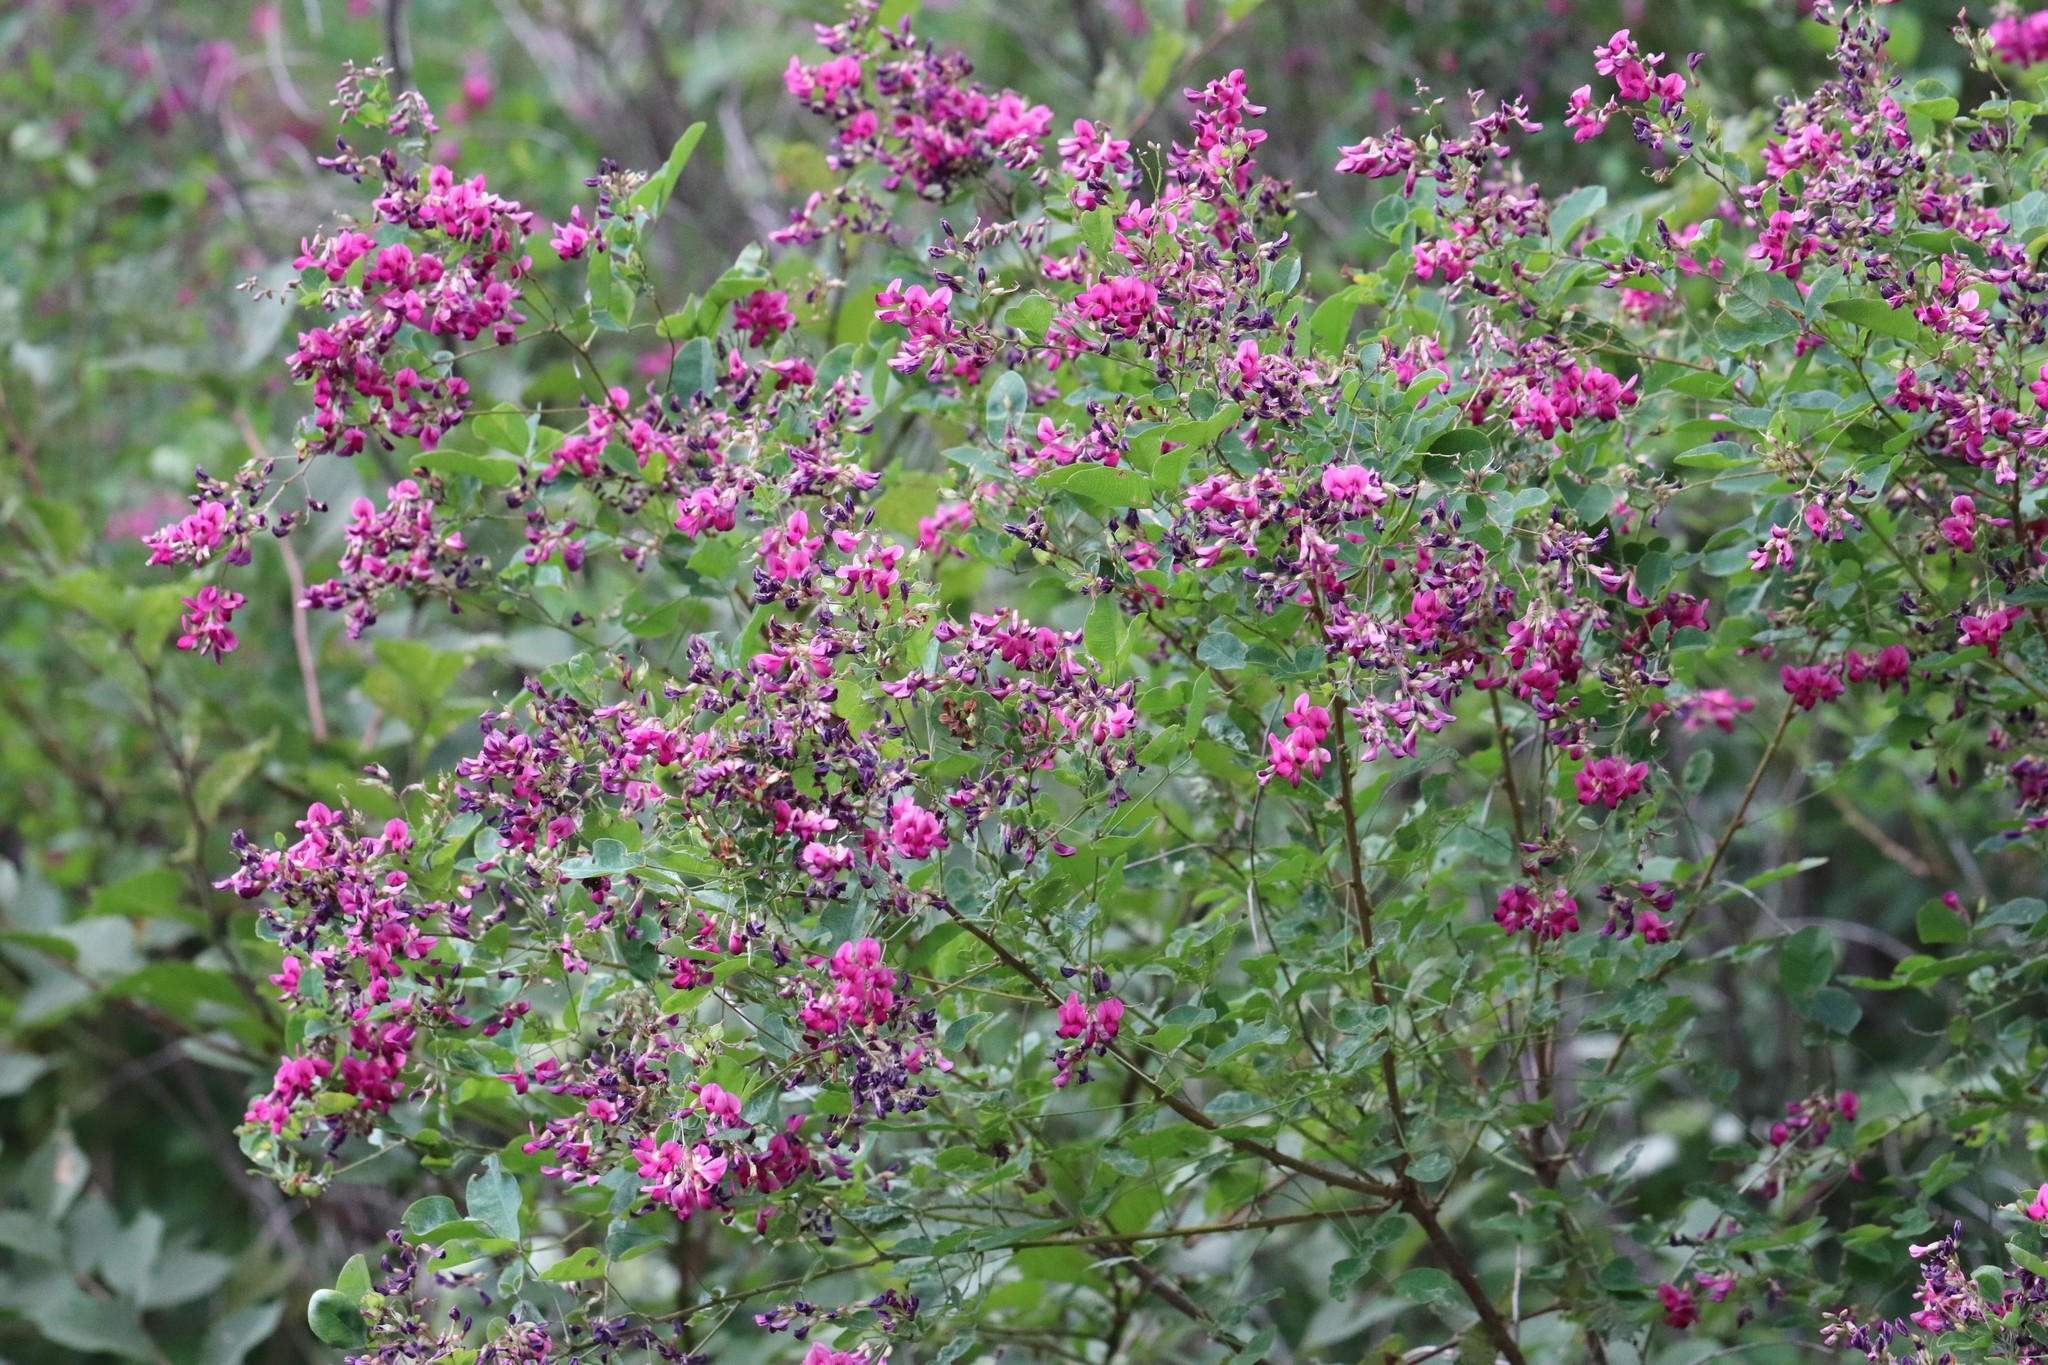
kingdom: Plantae
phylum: Tracheophyta
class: Magnoliopsida
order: Fabales
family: Fabaceae
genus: Lespedeza
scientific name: Lespedeza bicolor
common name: Shrub lespedeza
